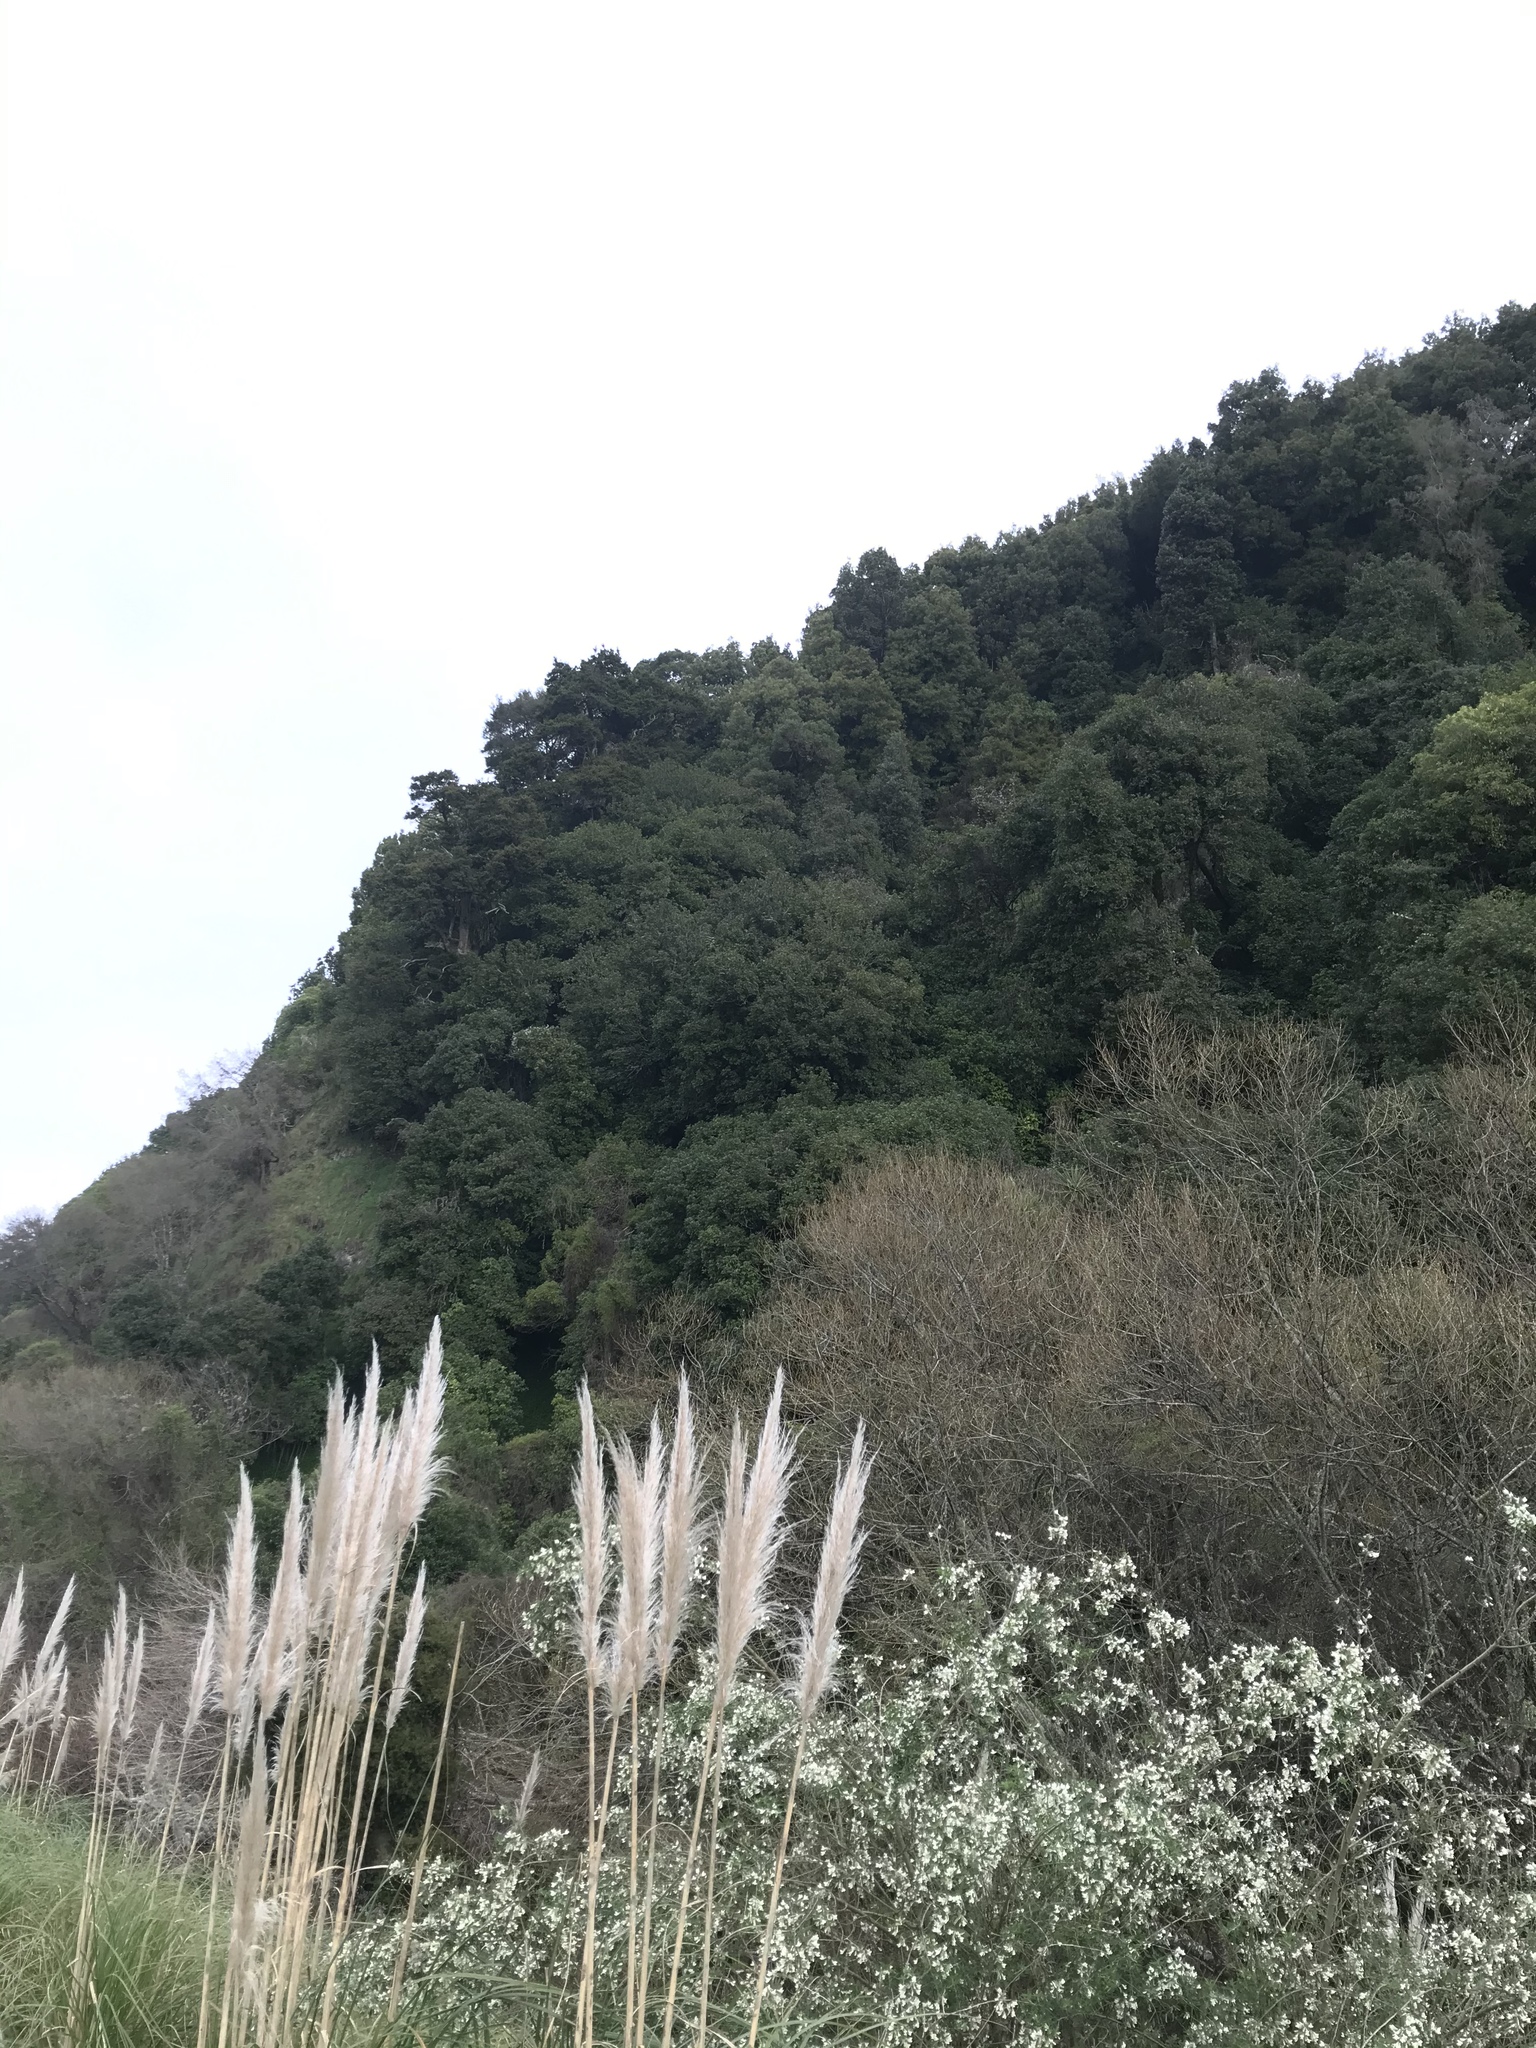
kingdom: Plantae
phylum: Tracheophyta
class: Magnoliopsida
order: Ranunculales
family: Ranunculaceae
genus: Clematis
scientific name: Clematis vitalba
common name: Evergreen clematis
